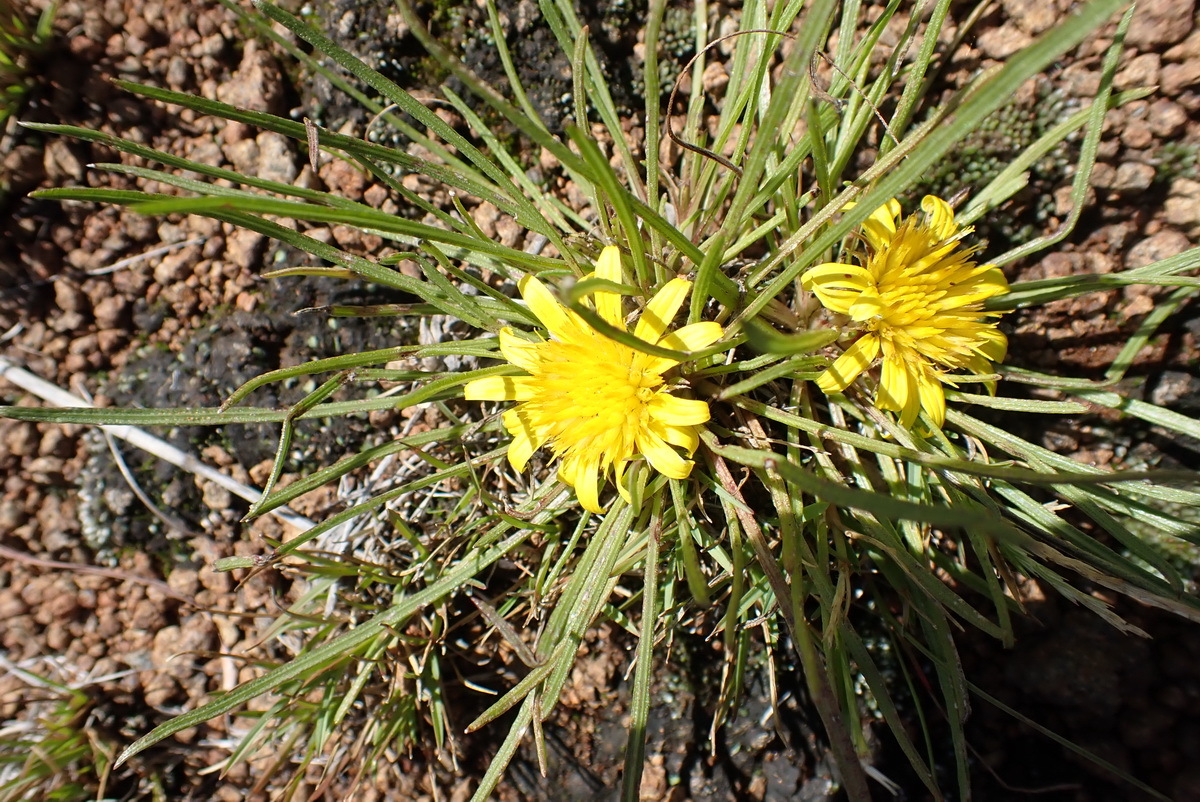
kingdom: Plantae
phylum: Tracheophyta
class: Magnoliopsida
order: Asterales
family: Asteraceae
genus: Geigeria
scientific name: Geigeria burkei
